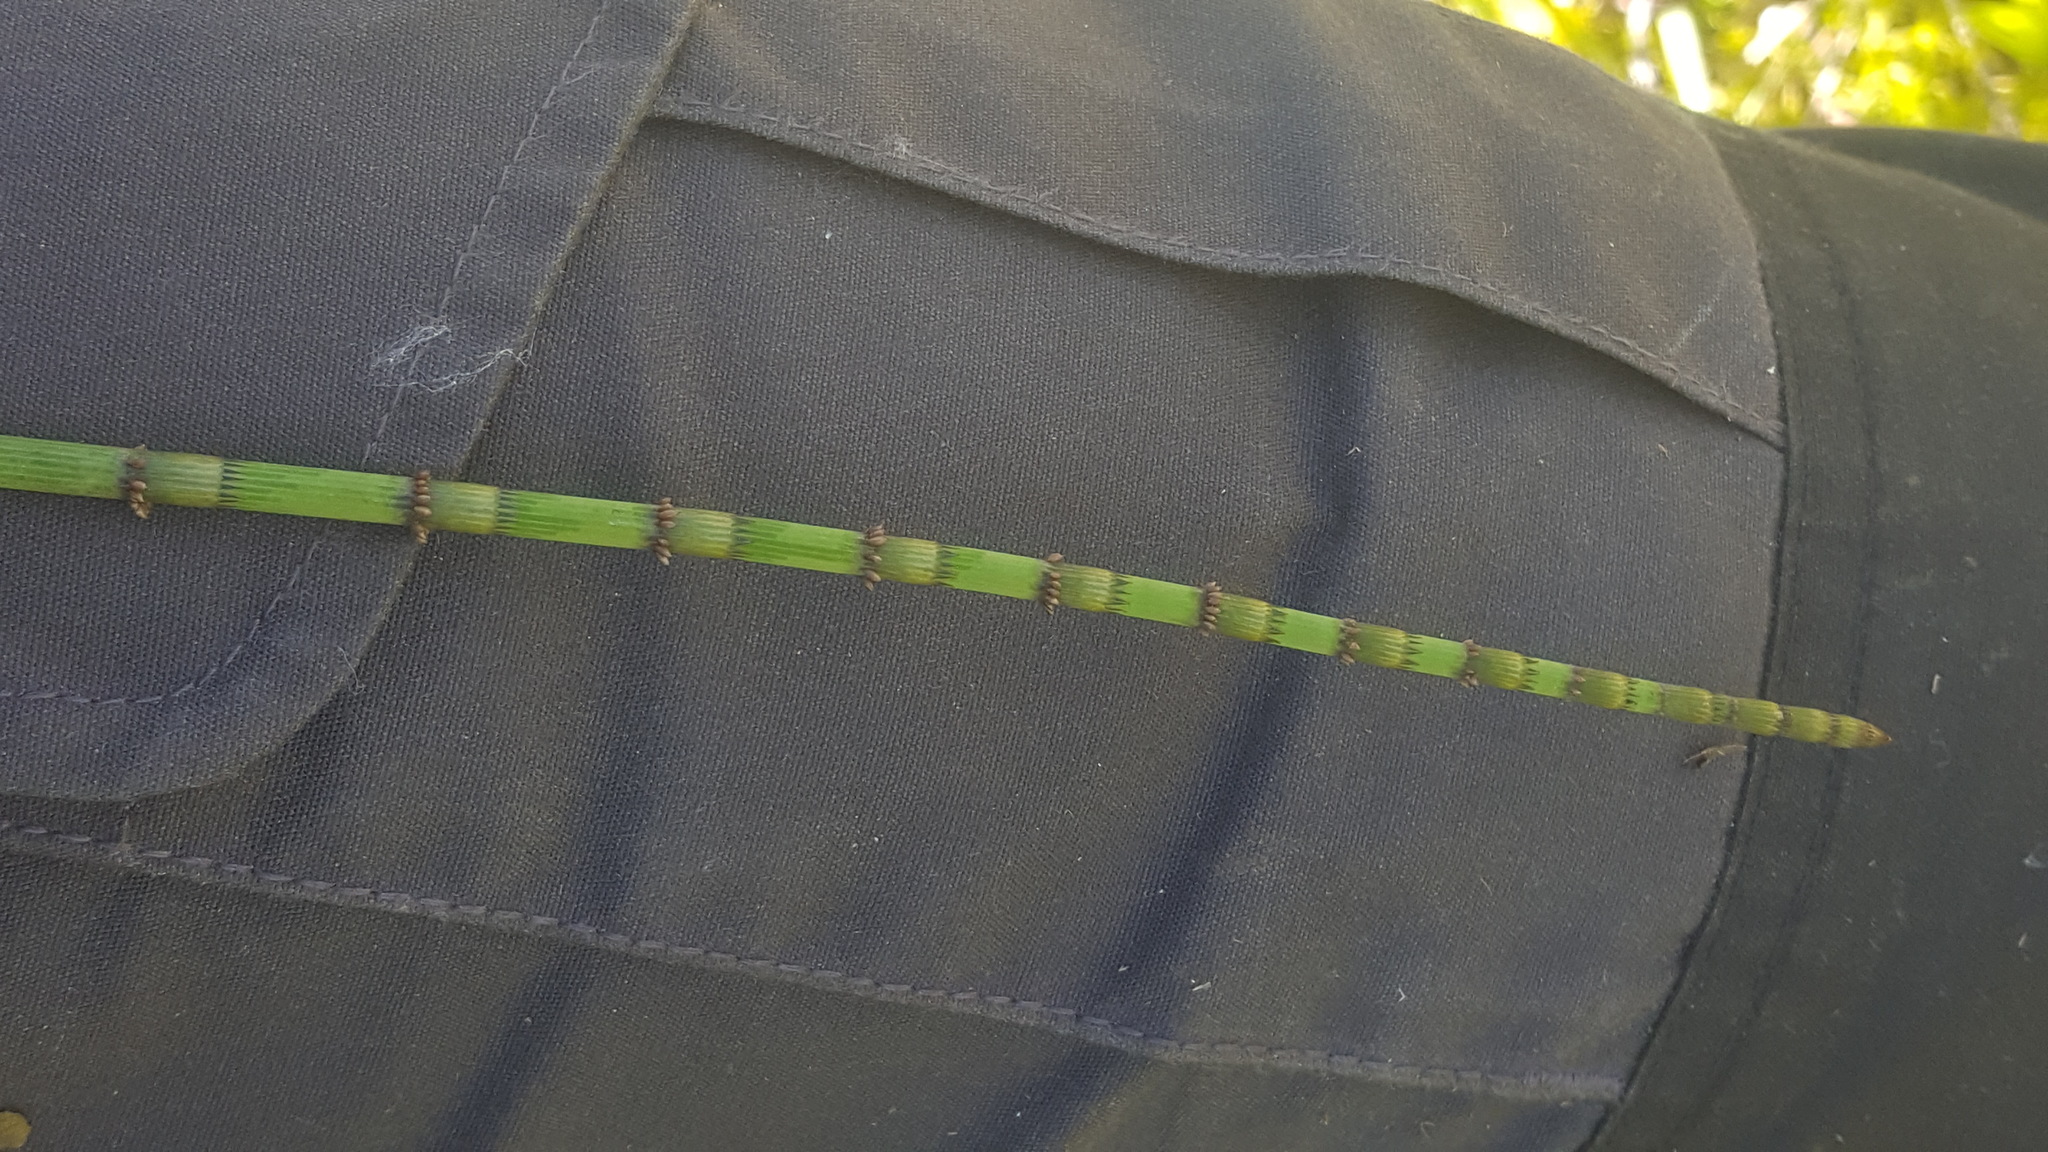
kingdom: Plantae
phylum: Tracheophyta
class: Polypodiopsida
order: Equisetales
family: Equisetaceae
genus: Equisetum
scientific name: Equisetum fluviatile
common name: Water horsetail
